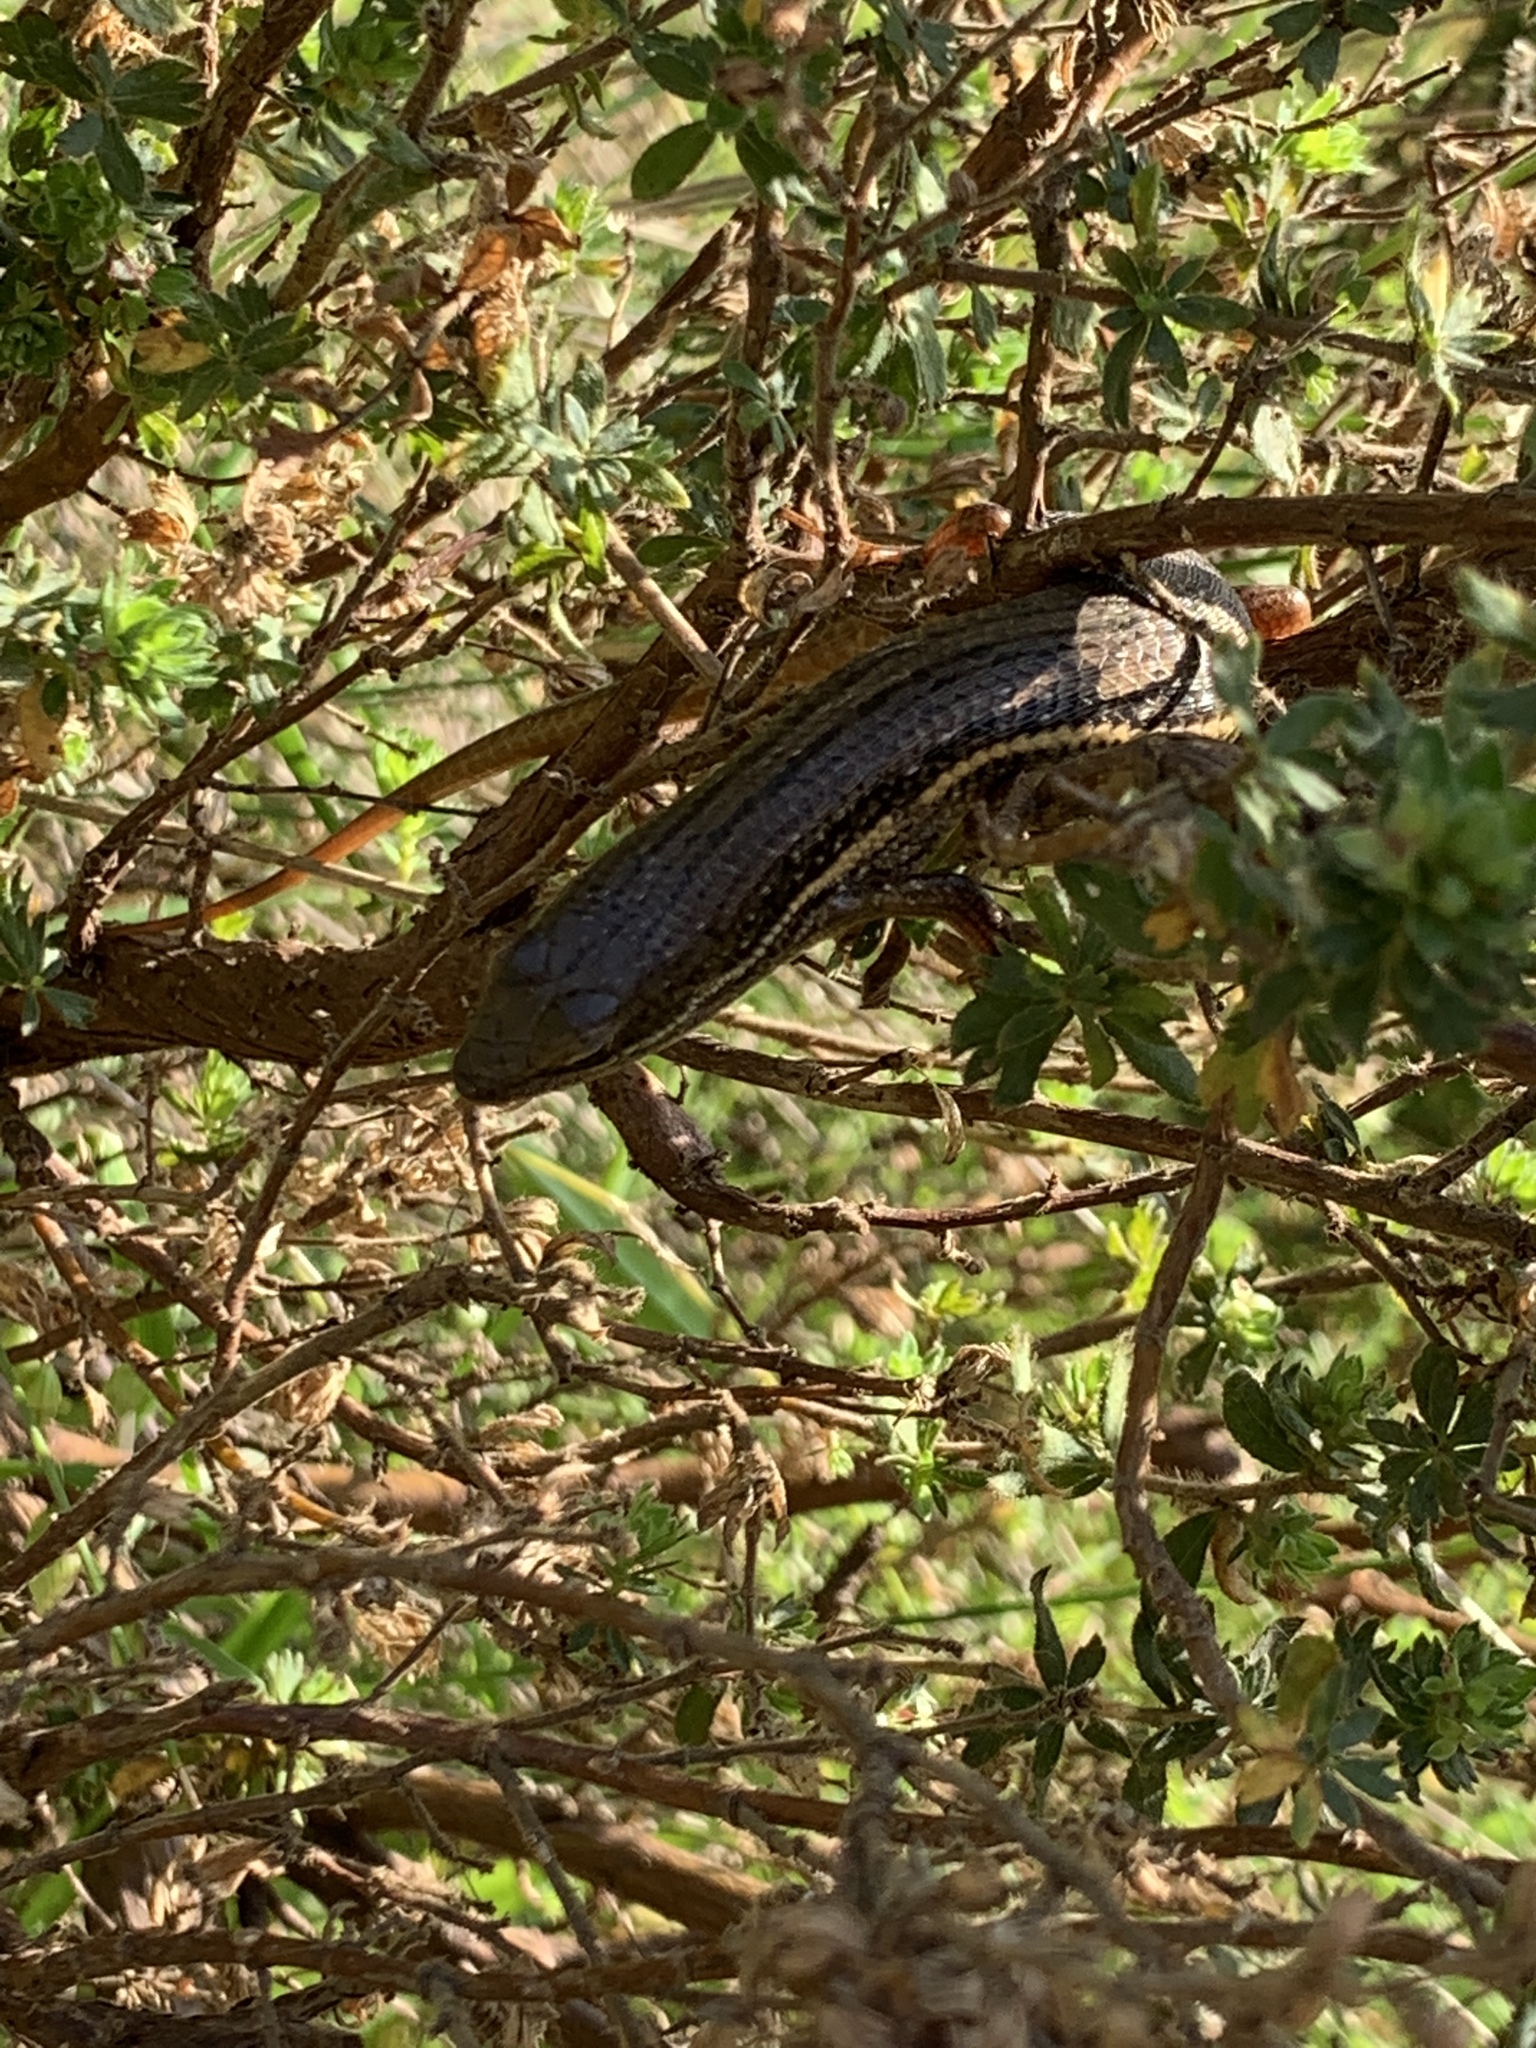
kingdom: Animalia
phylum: Chordata
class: Squamata
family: Scincidae
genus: Trachylepis
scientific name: Trachylepis homalocephala
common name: Red-sided skink
